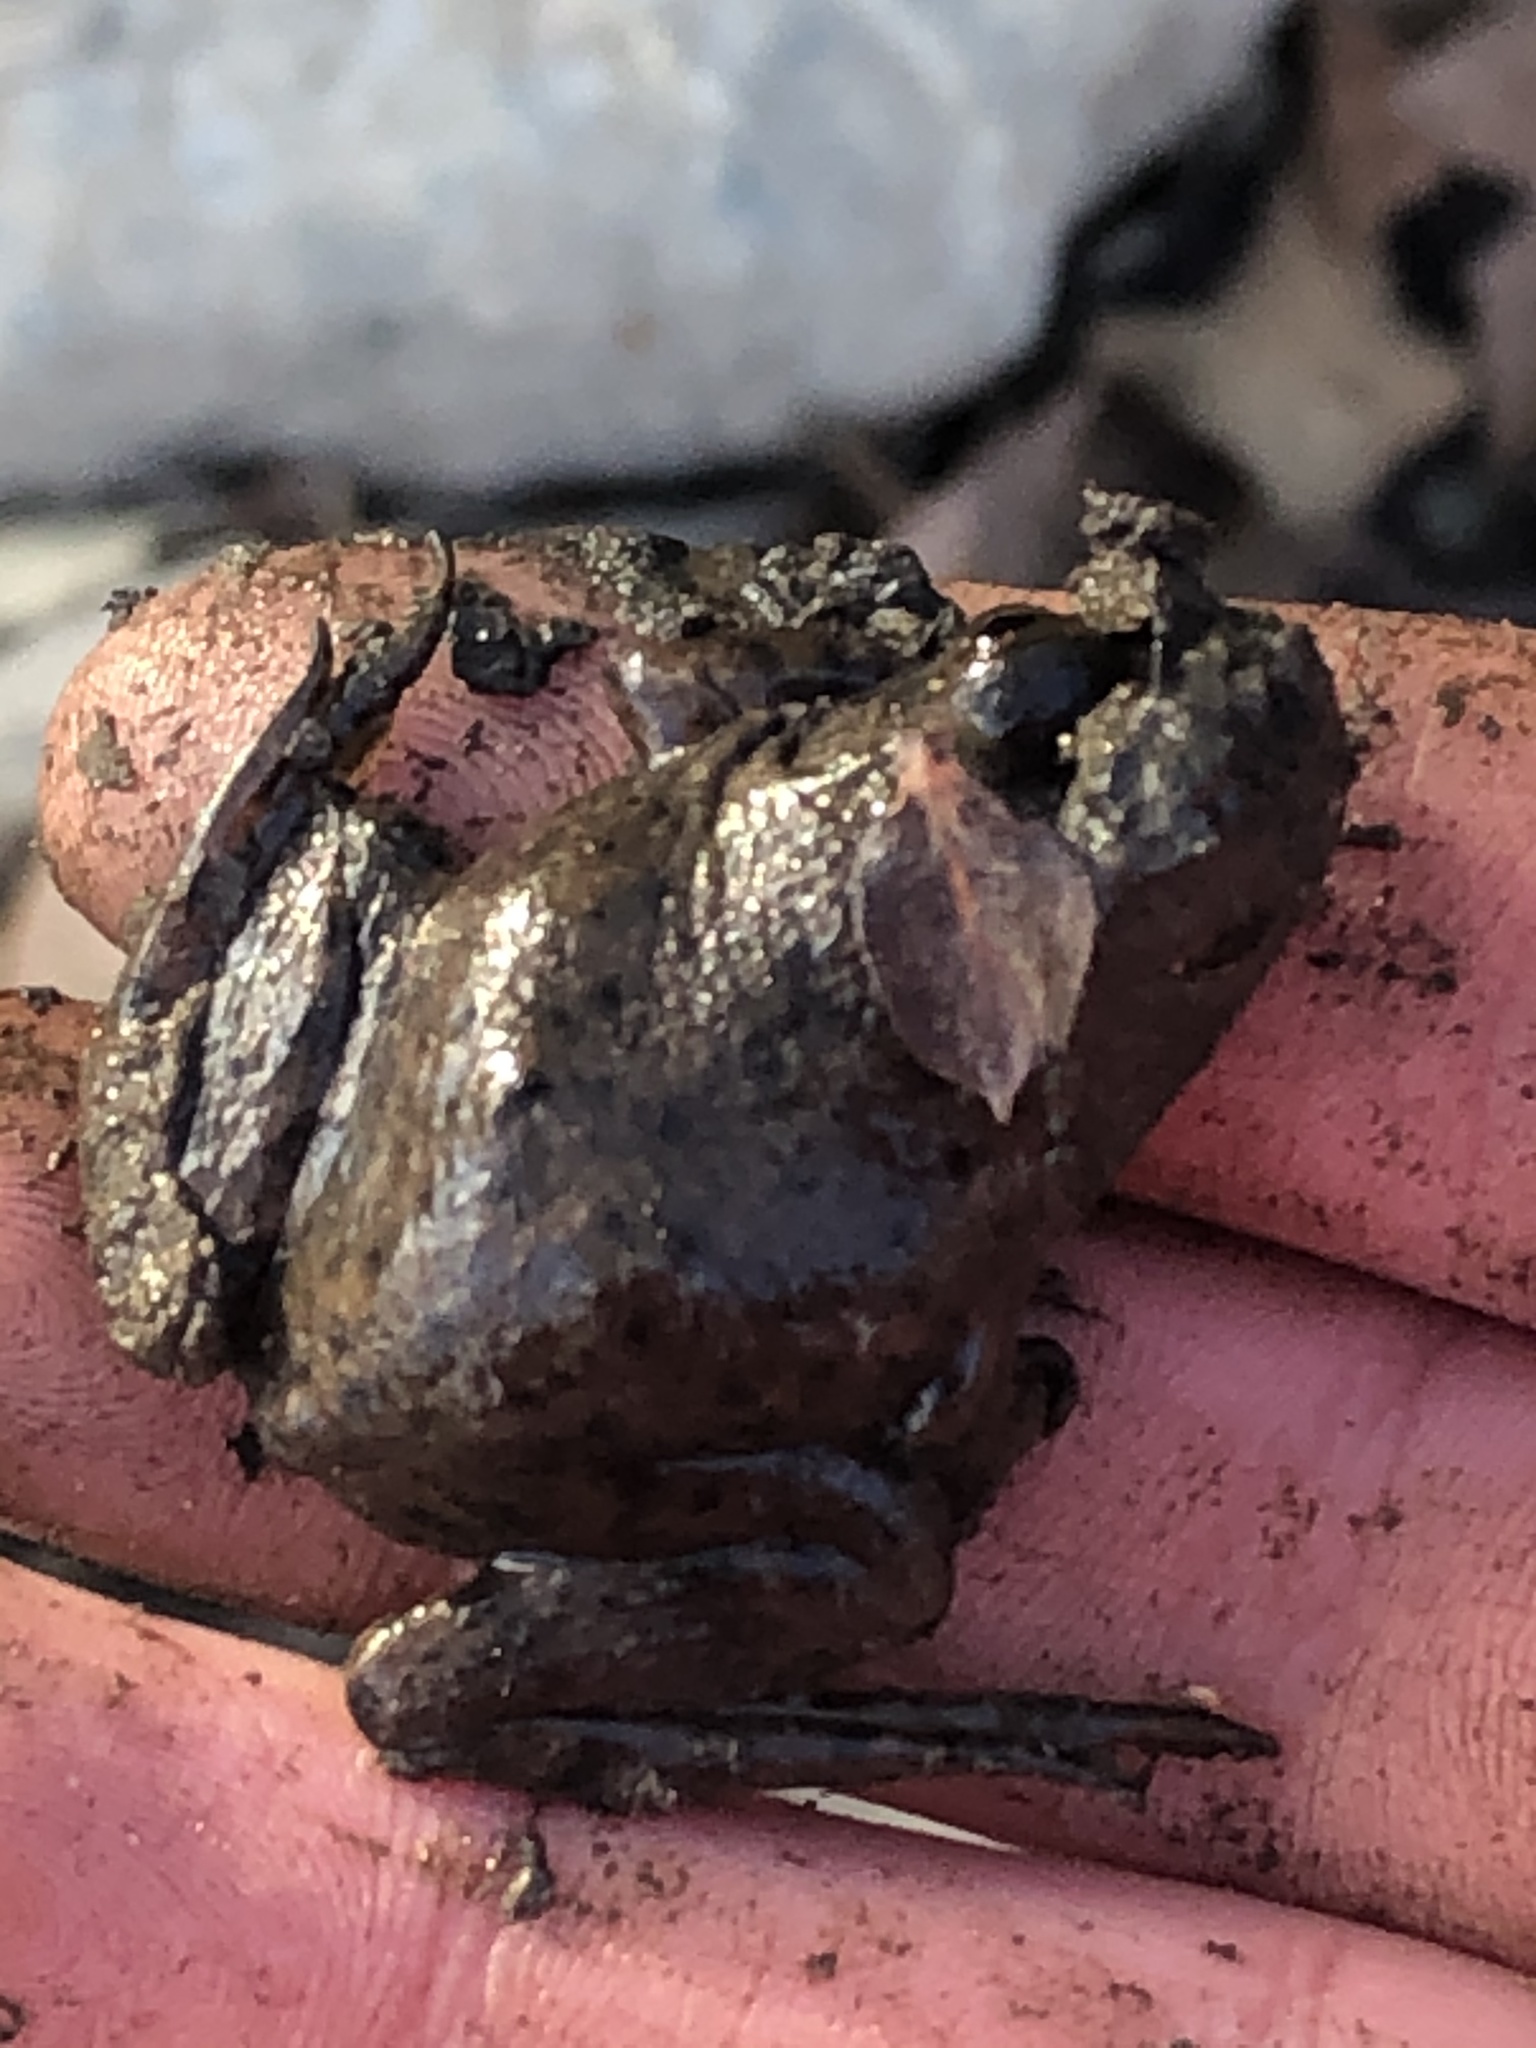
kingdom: Animalia
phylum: Chordata
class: Amphibia
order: Anura
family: Ranidae
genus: Lithobates
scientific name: Lithobates catesbeianus
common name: American bullfrog
